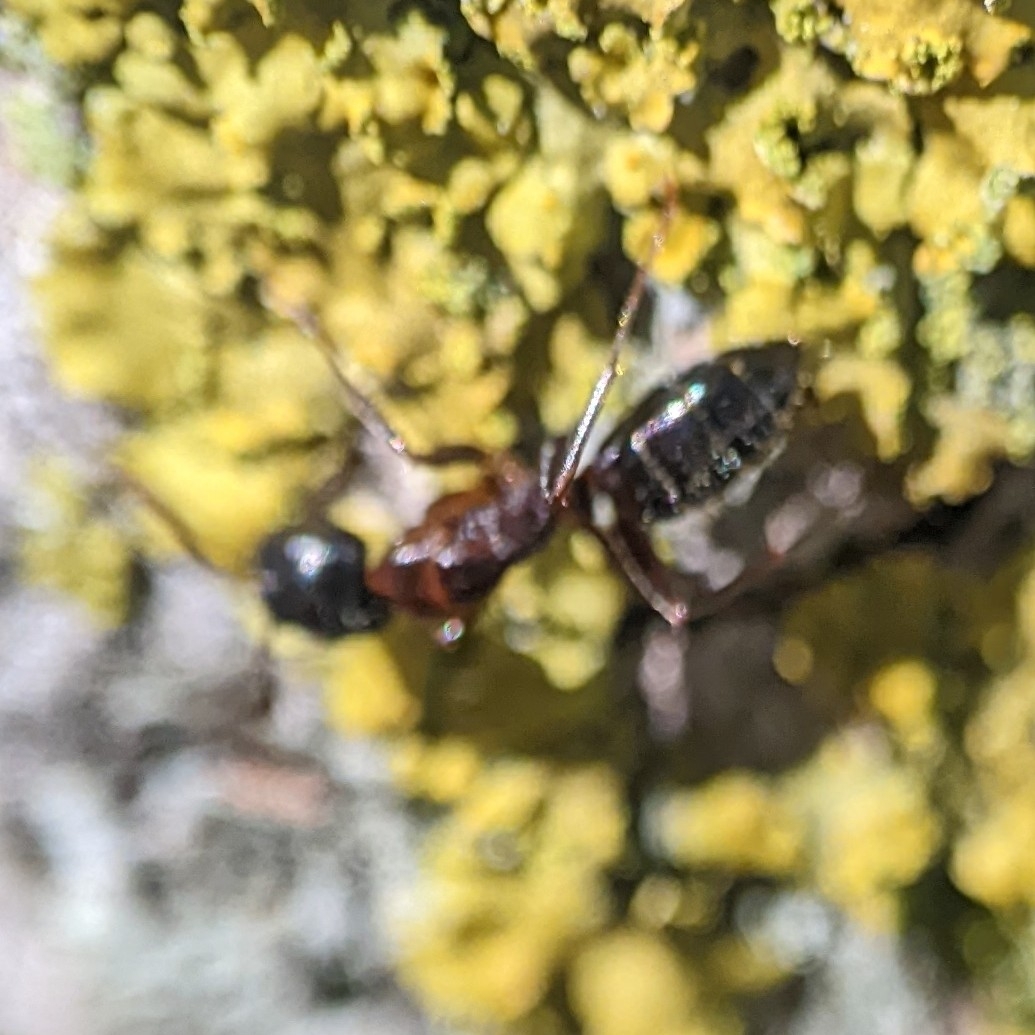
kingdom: Animalia
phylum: Arthropoda
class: Insecta
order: Hymenoptera
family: Formicidae
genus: Camponotus
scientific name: Camponotus nearcticus
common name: Smaller carpenter ant
